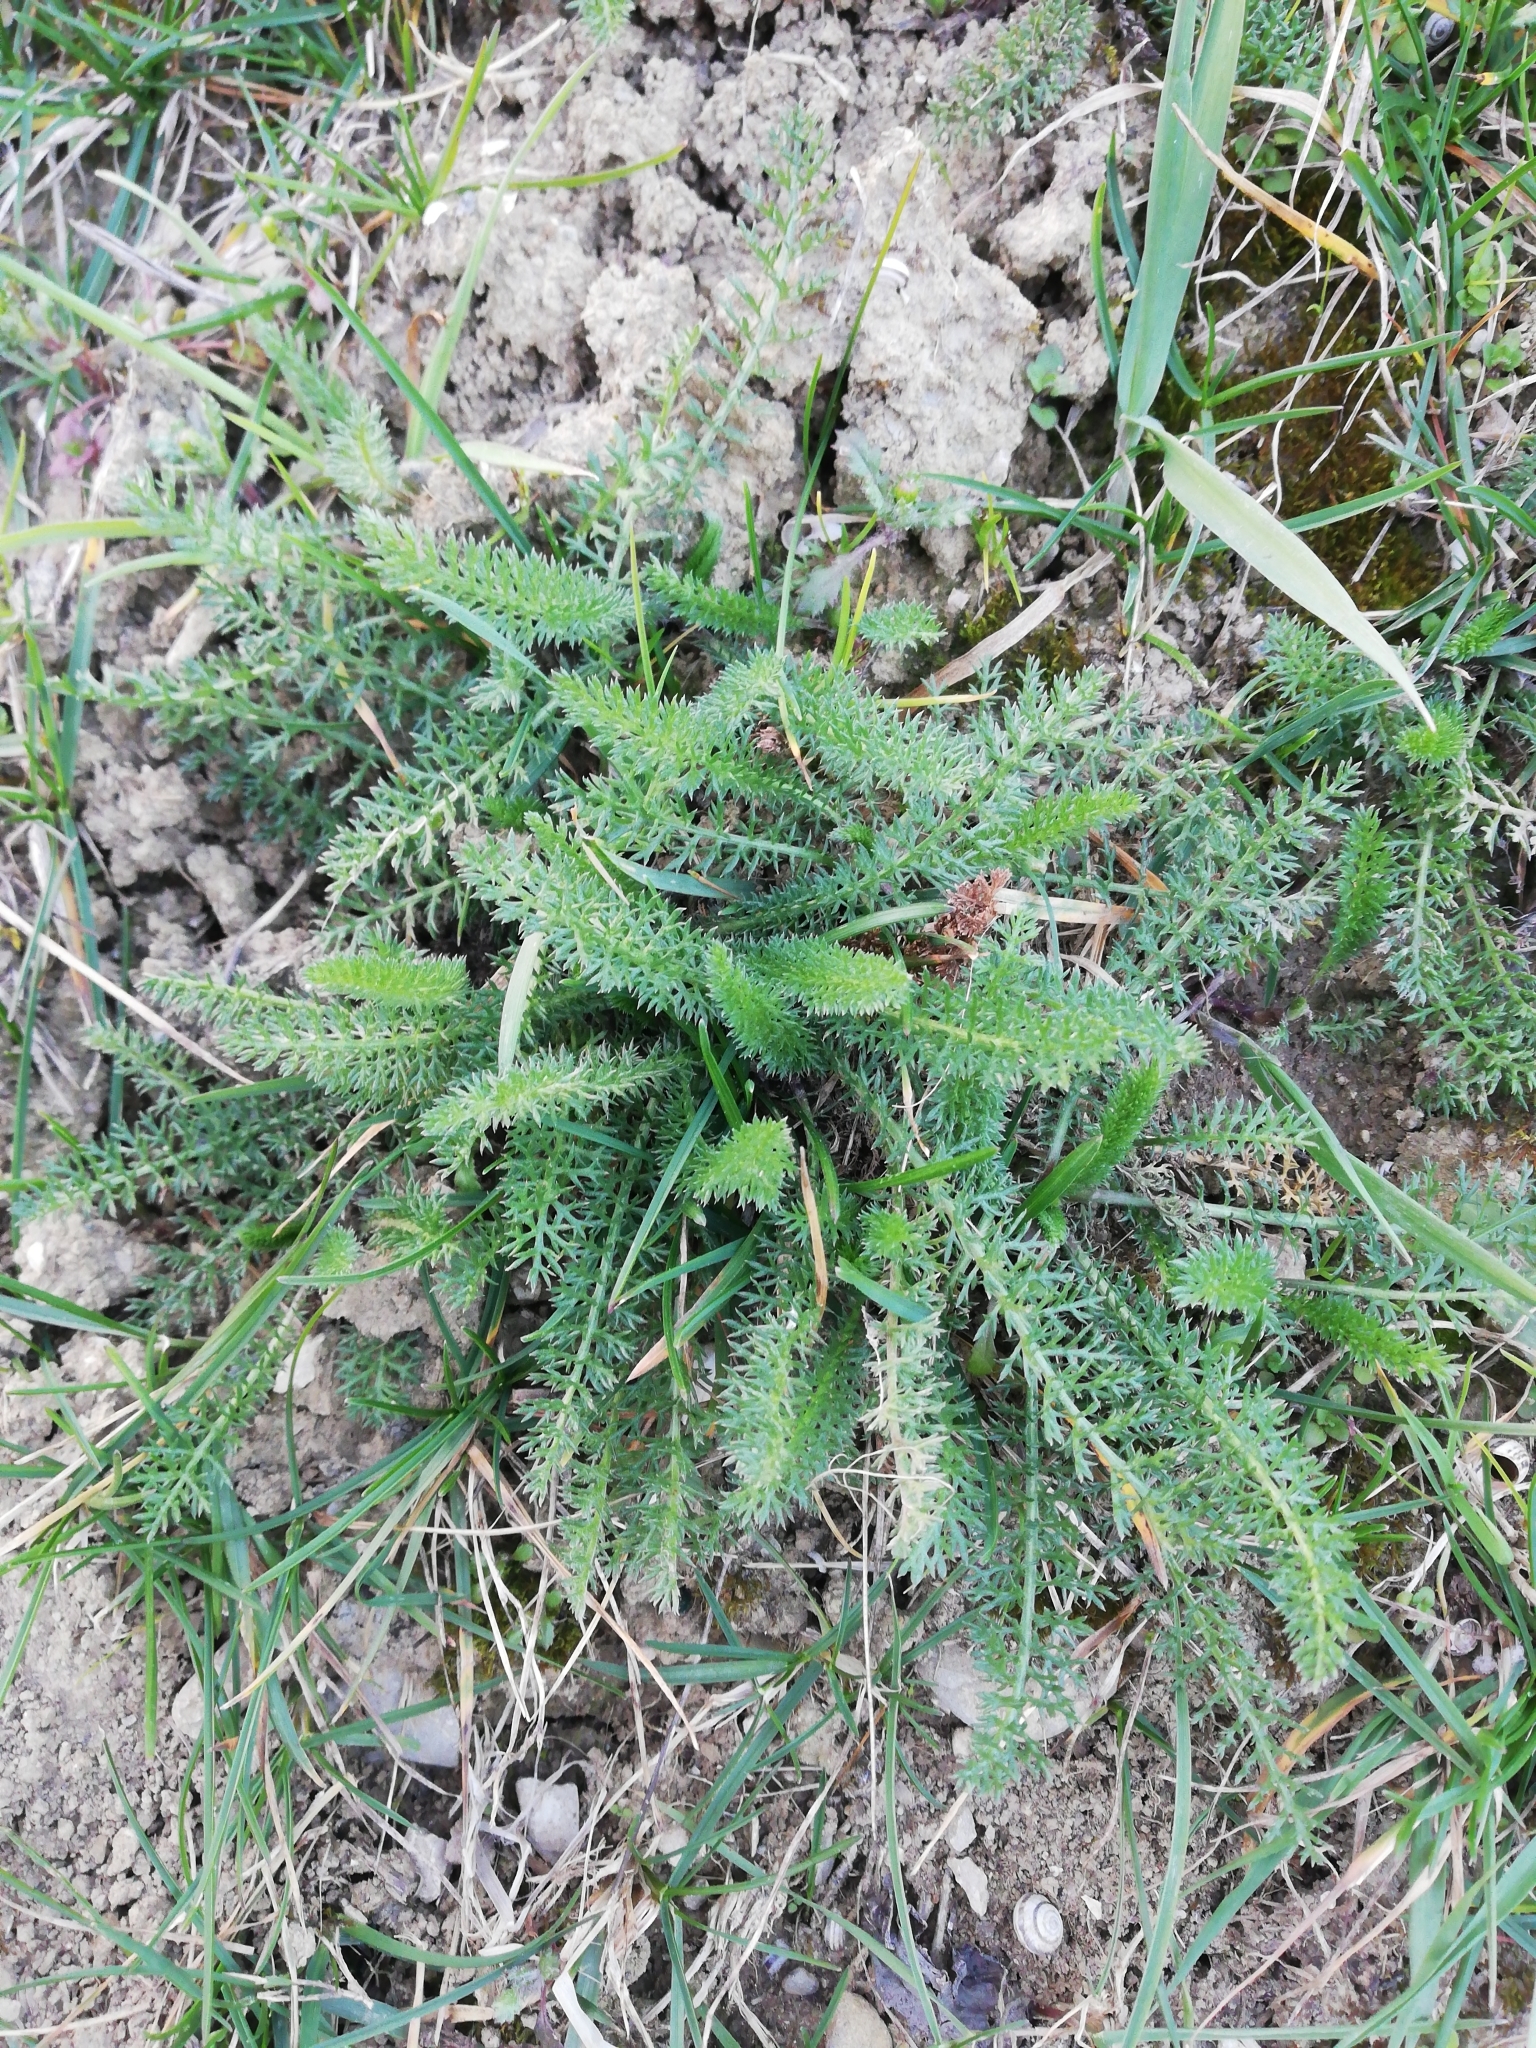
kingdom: Plantae
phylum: Tracheophyta
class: Magnoliopsida
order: Asterales
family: Asteraceae
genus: Achillea
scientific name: Achillea millefolium
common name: Yarrow
